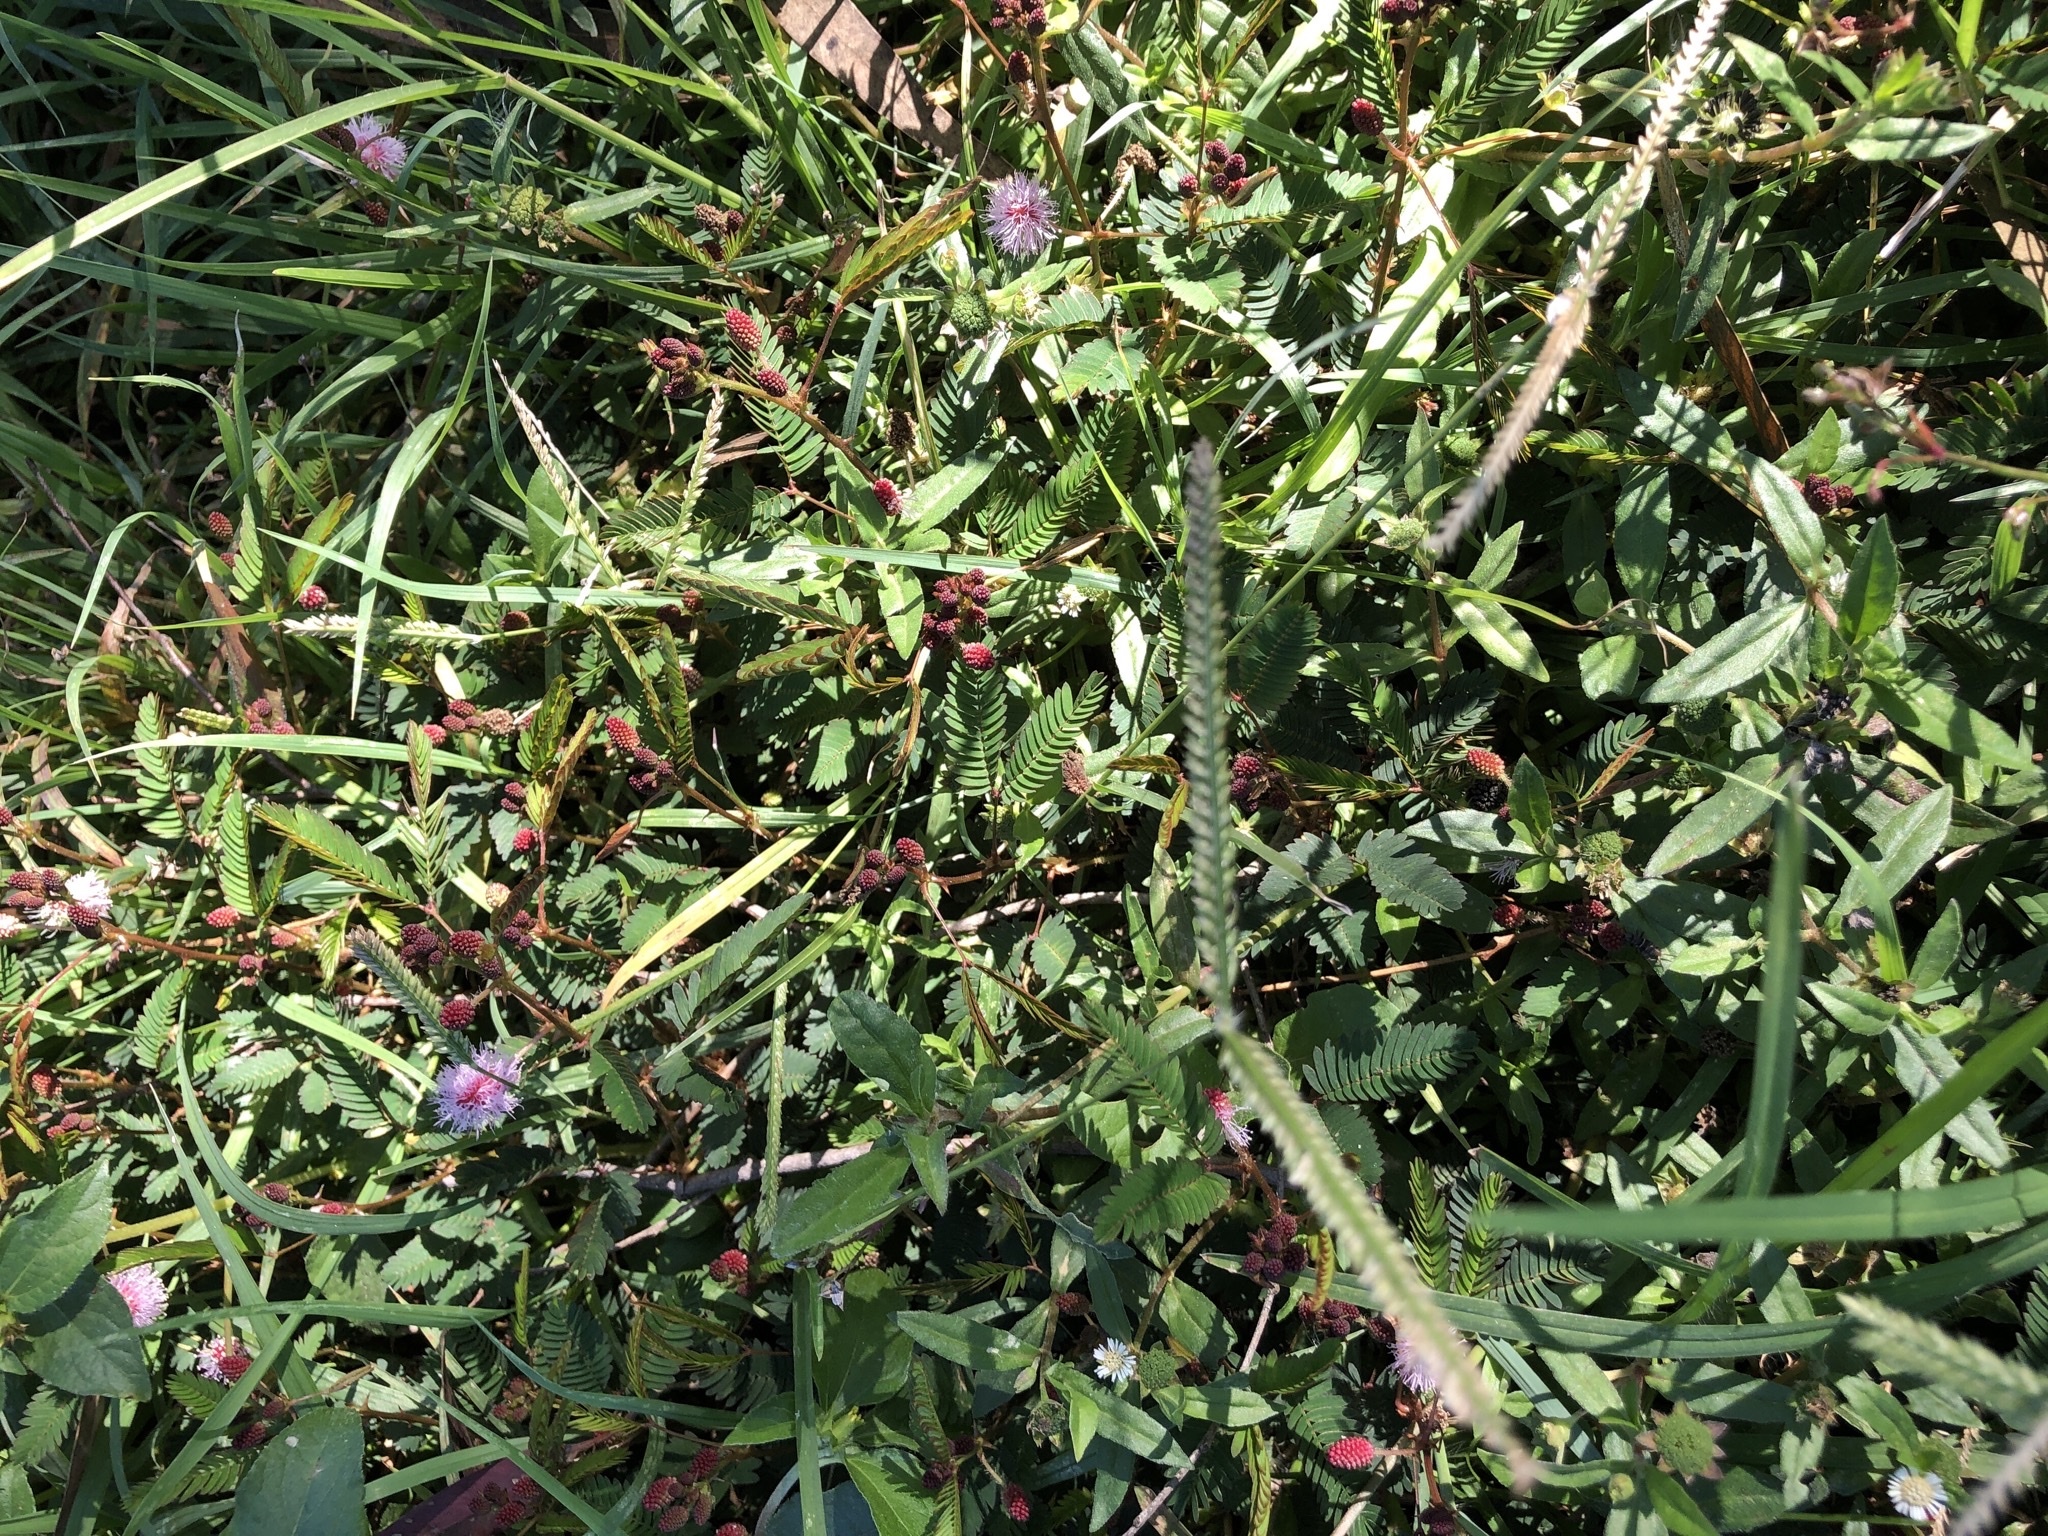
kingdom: Plantae
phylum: Tracheophyta
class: Magnoliopsida
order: Fabales
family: Fabaceae
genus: Mimosa
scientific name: Mimosa pudica
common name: Sensitive plant
